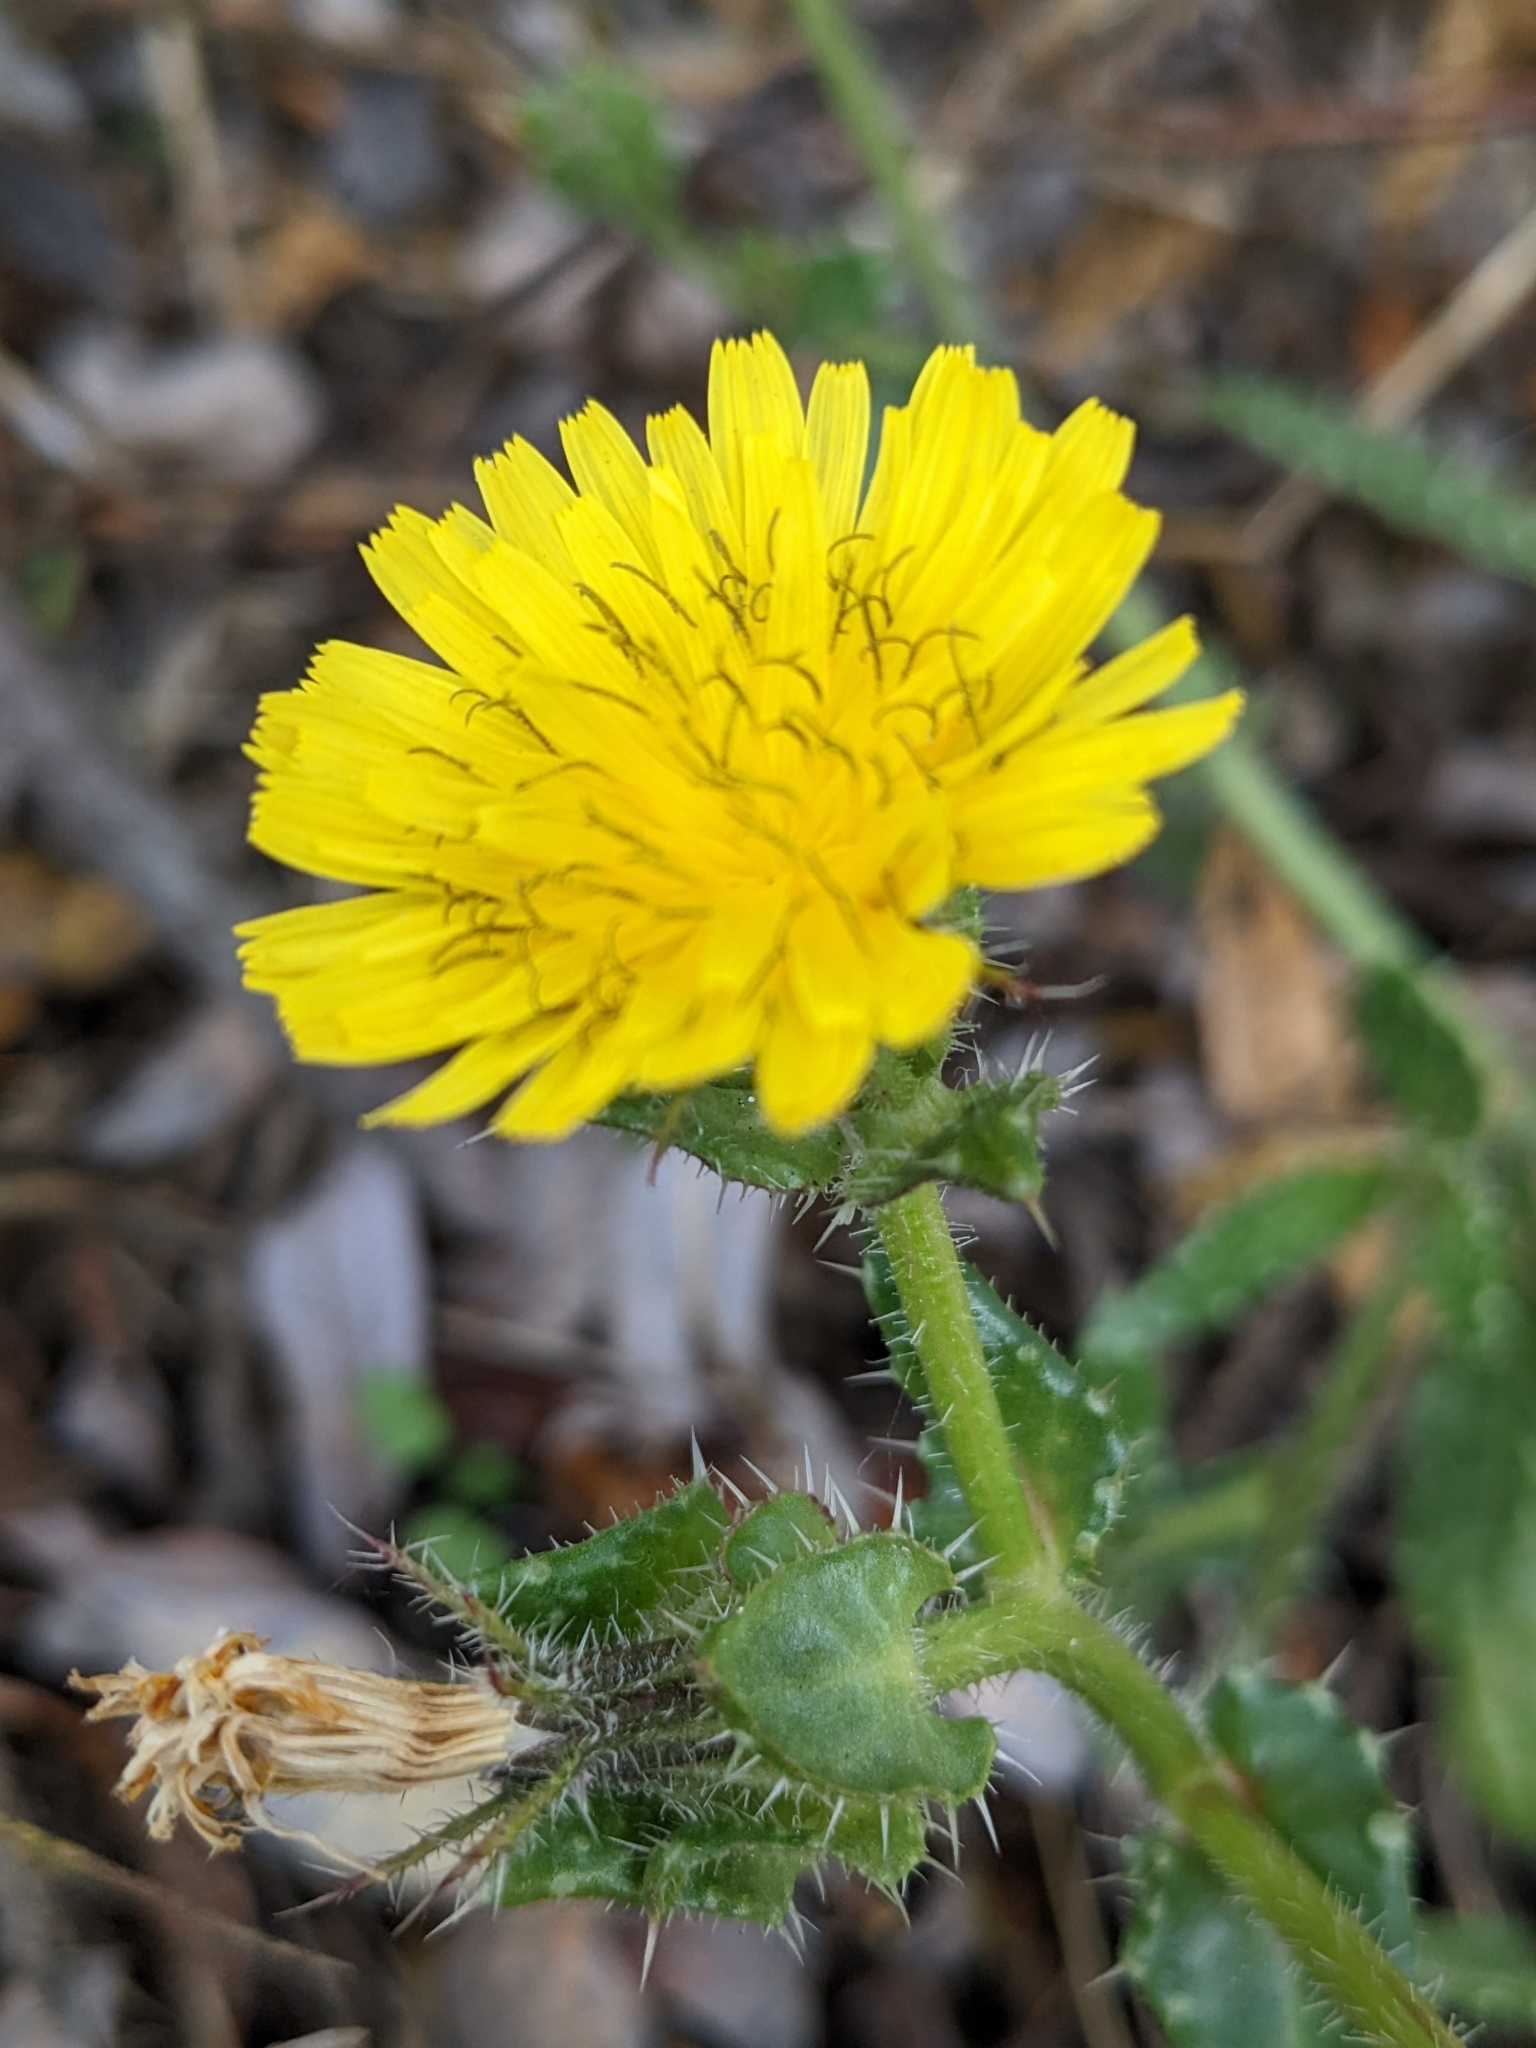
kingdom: Plantae
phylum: Tracheophyta
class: Magnoliopsida
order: Asterales
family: Asteraceae
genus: Helminthotheca
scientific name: Helminthotheca echioides
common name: Ox-tongue
